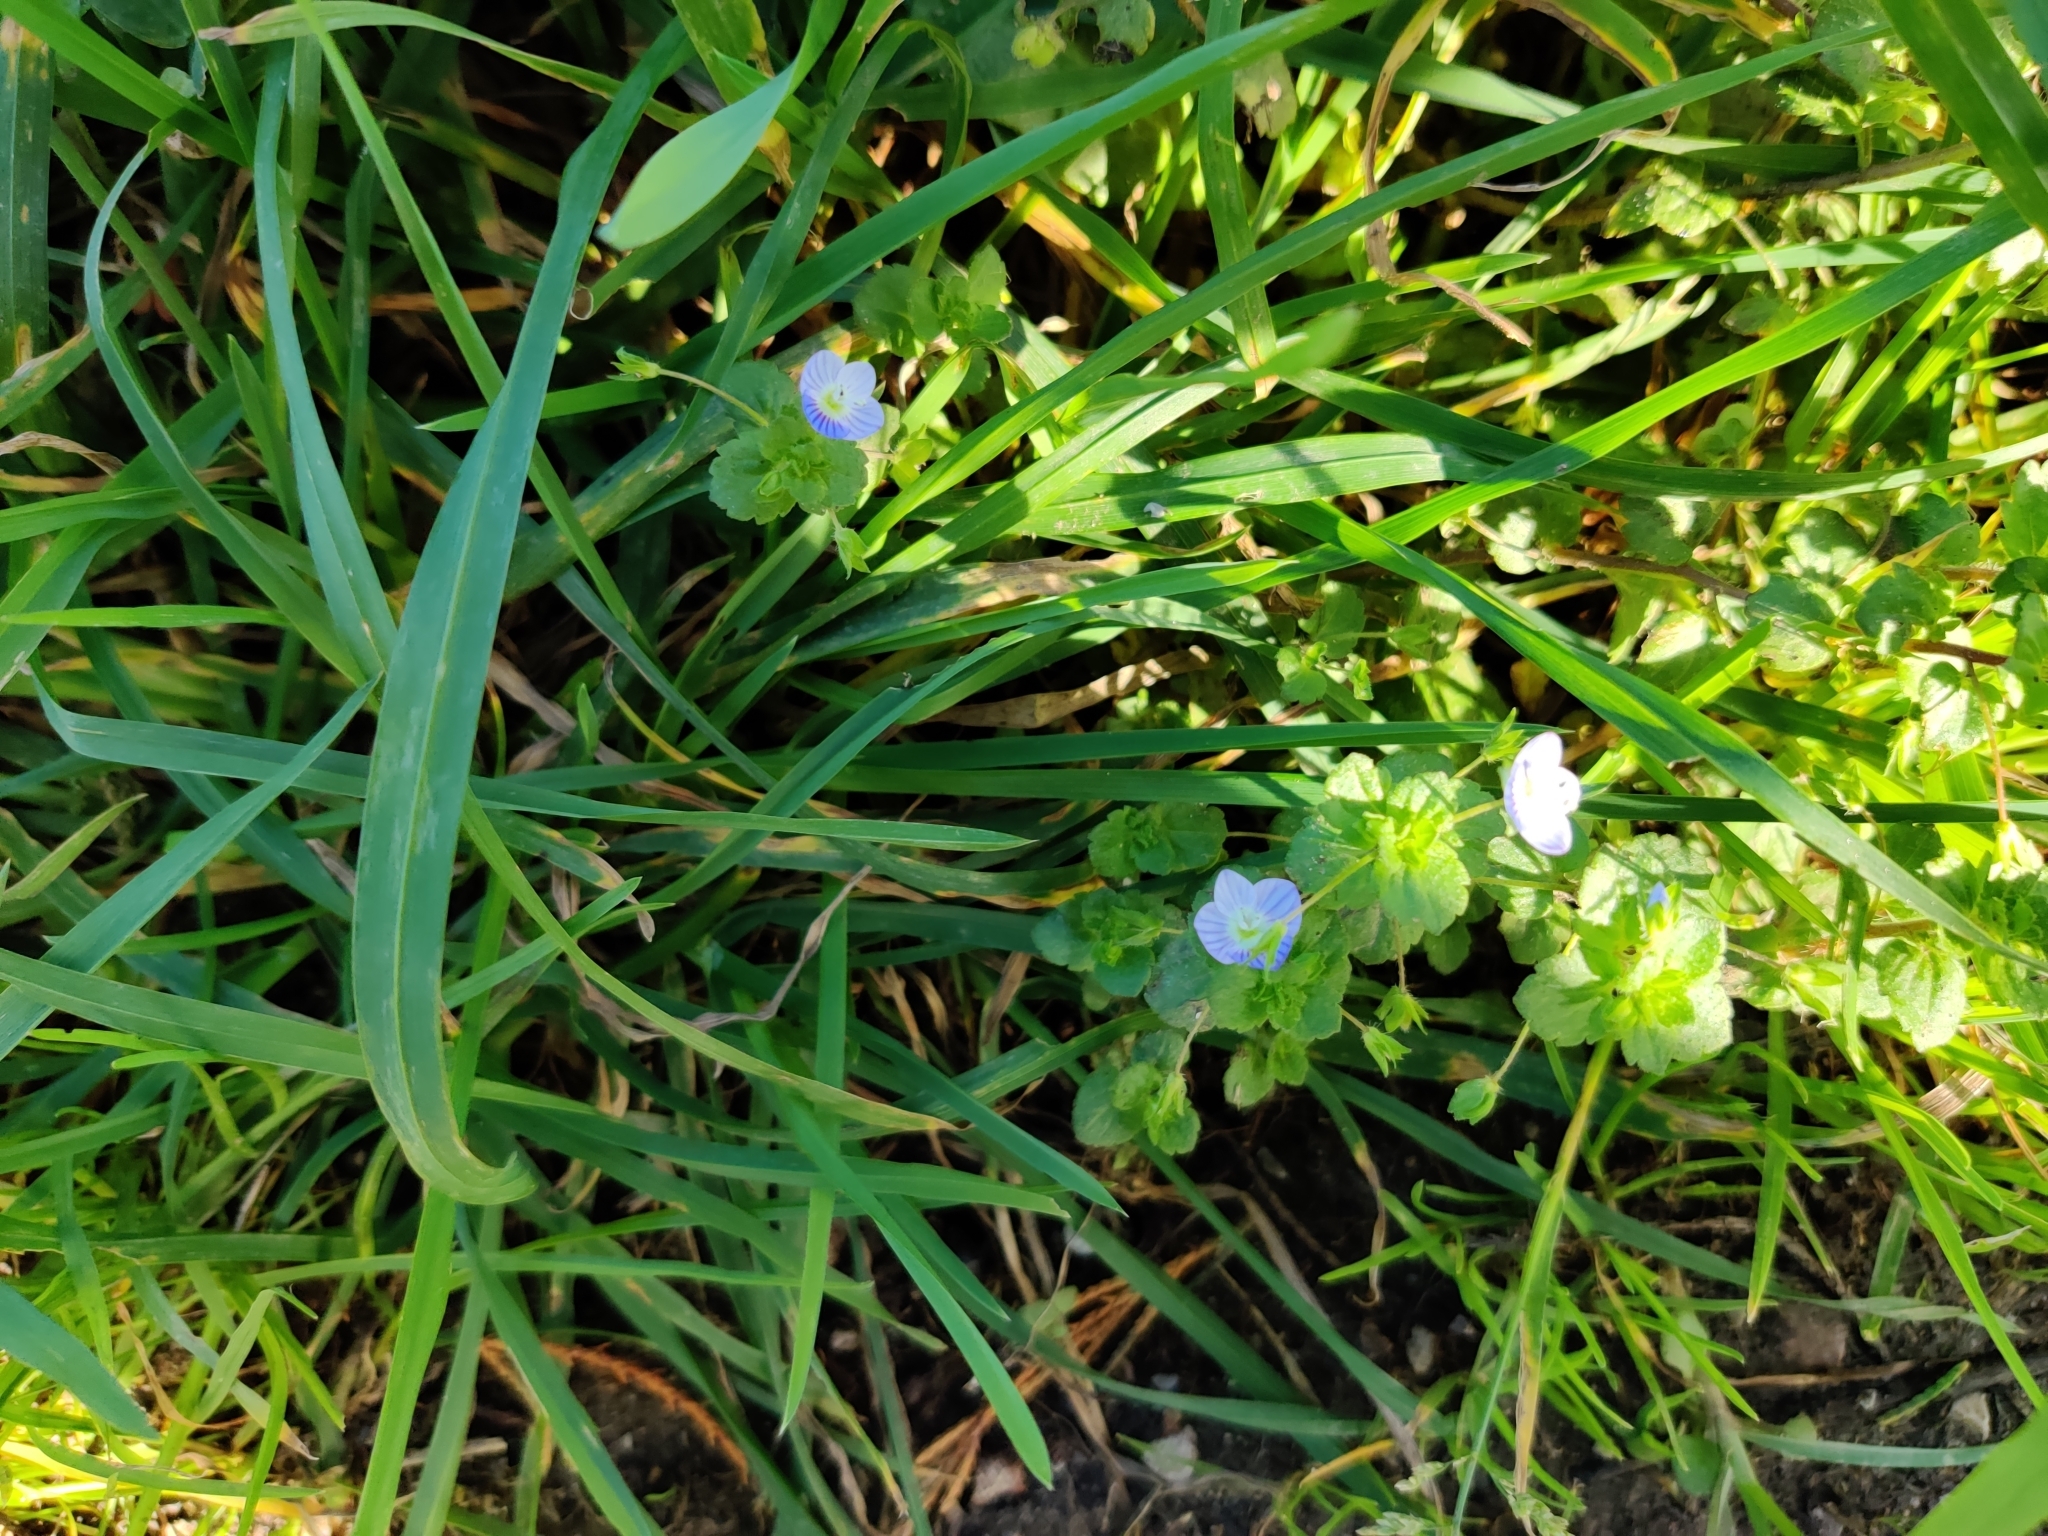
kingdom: Plantae
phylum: Tracheophyta
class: Magnoliopsida
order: Lamiales
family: Plantaginaceae
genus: Veronica
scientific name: Veronica persica
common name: Common field-speedwell
